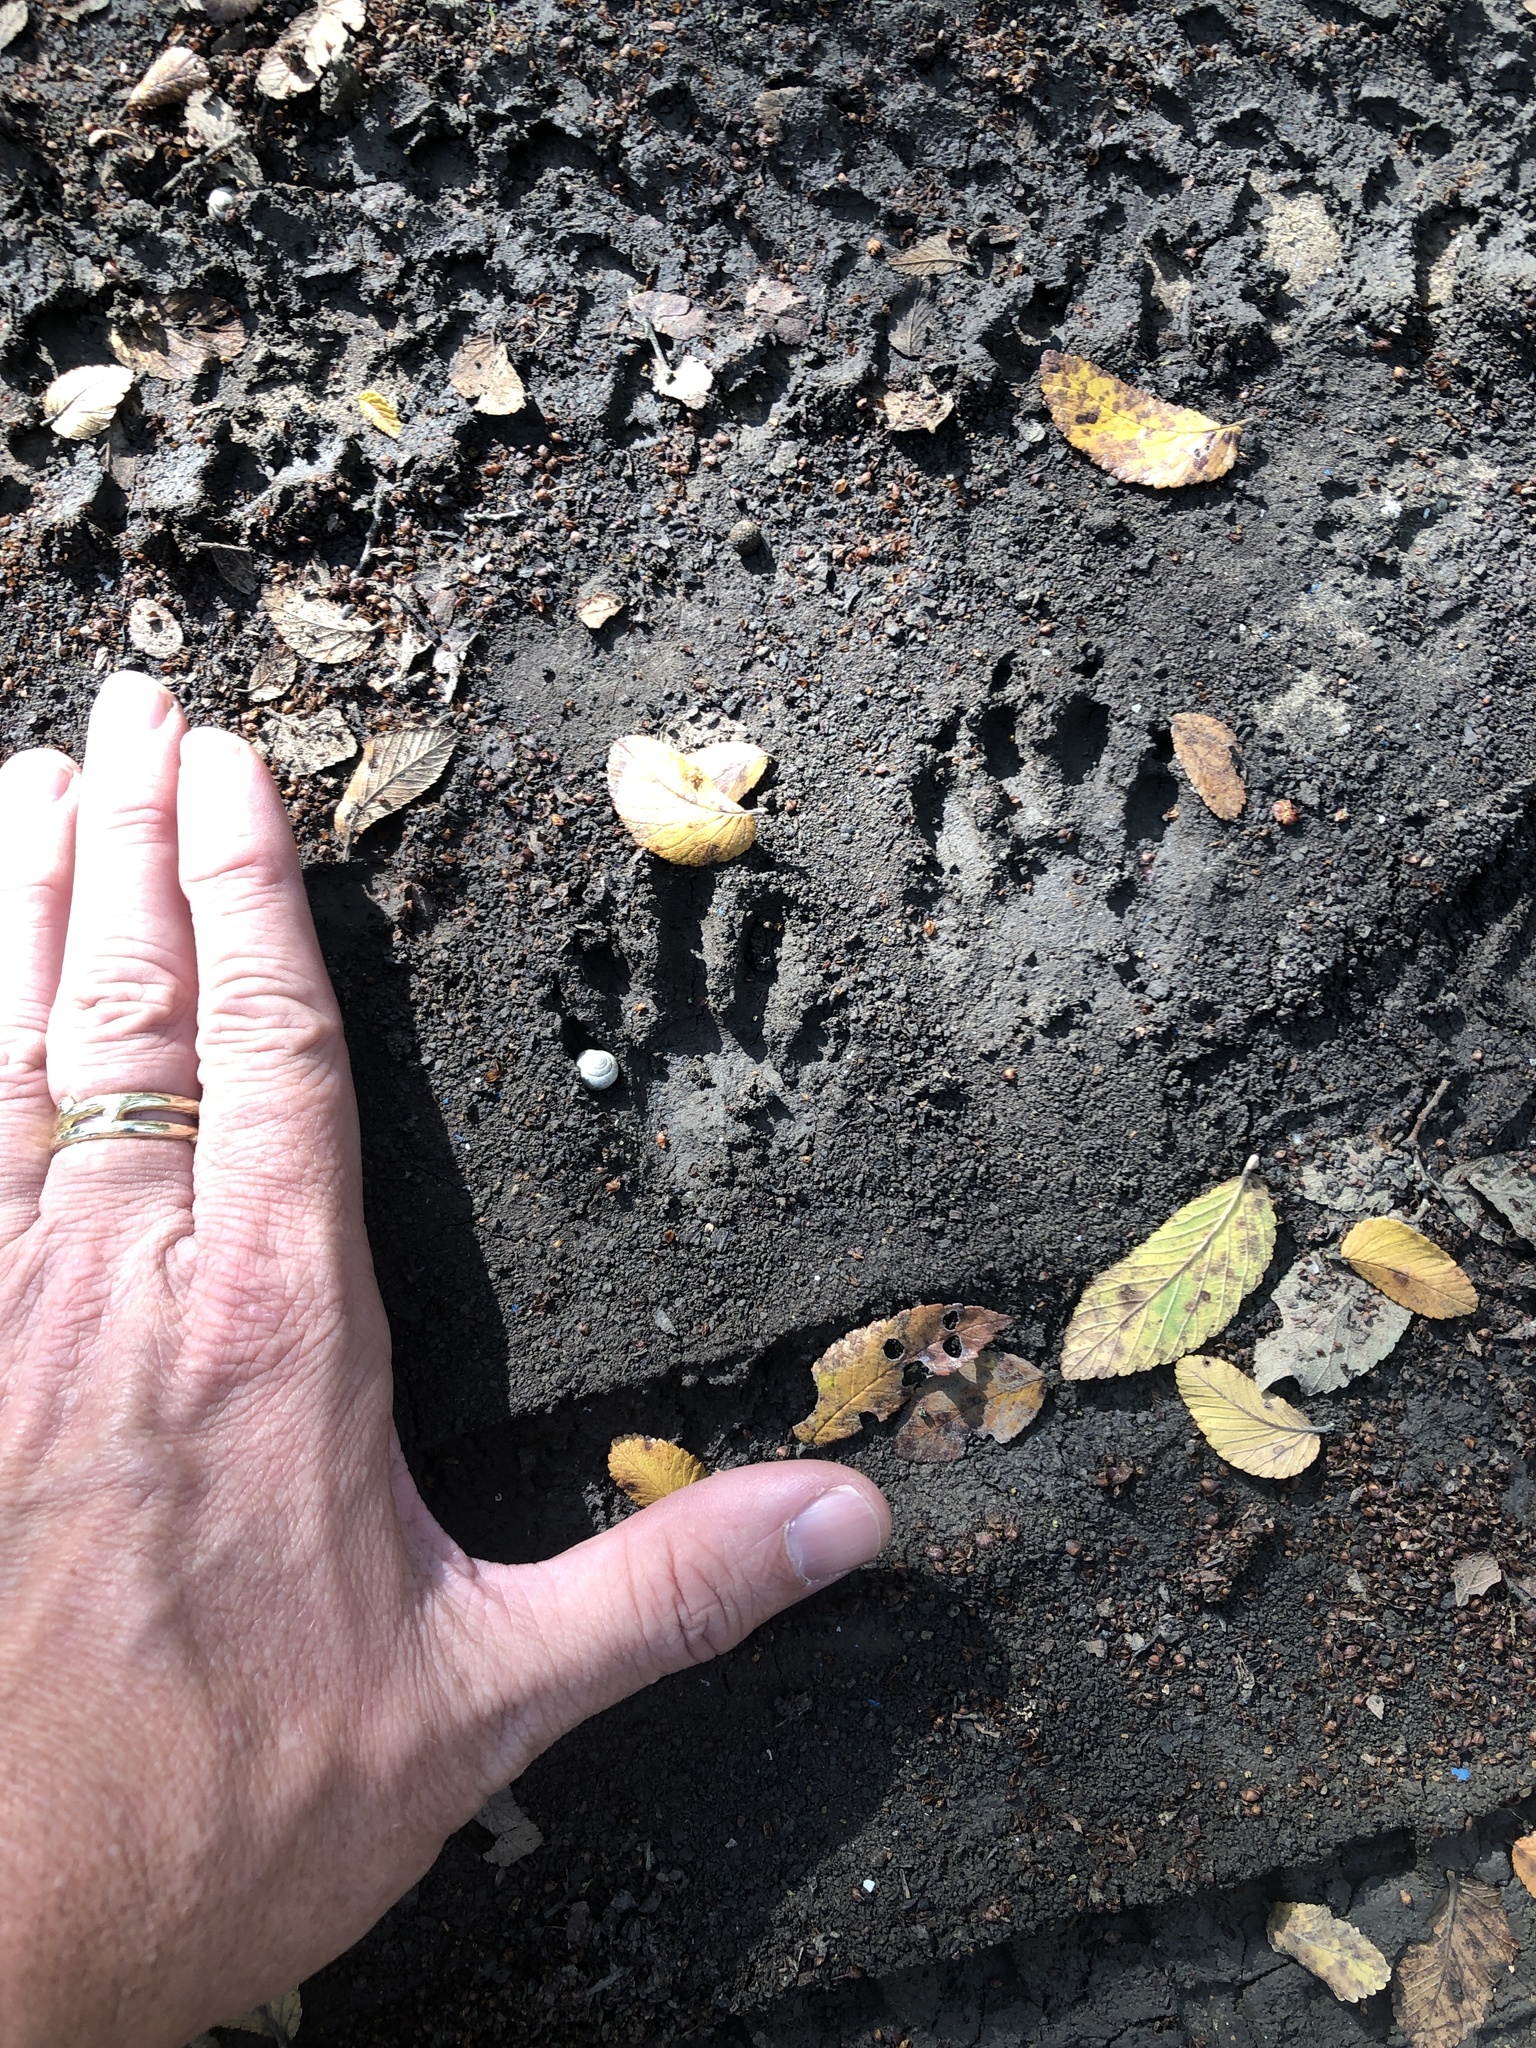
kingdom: Animalia
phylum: Chordata
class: Mammalia
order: Carnivora
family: Procyonidae
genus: Procyon
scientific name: Procyon lotor
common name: Raccoon
